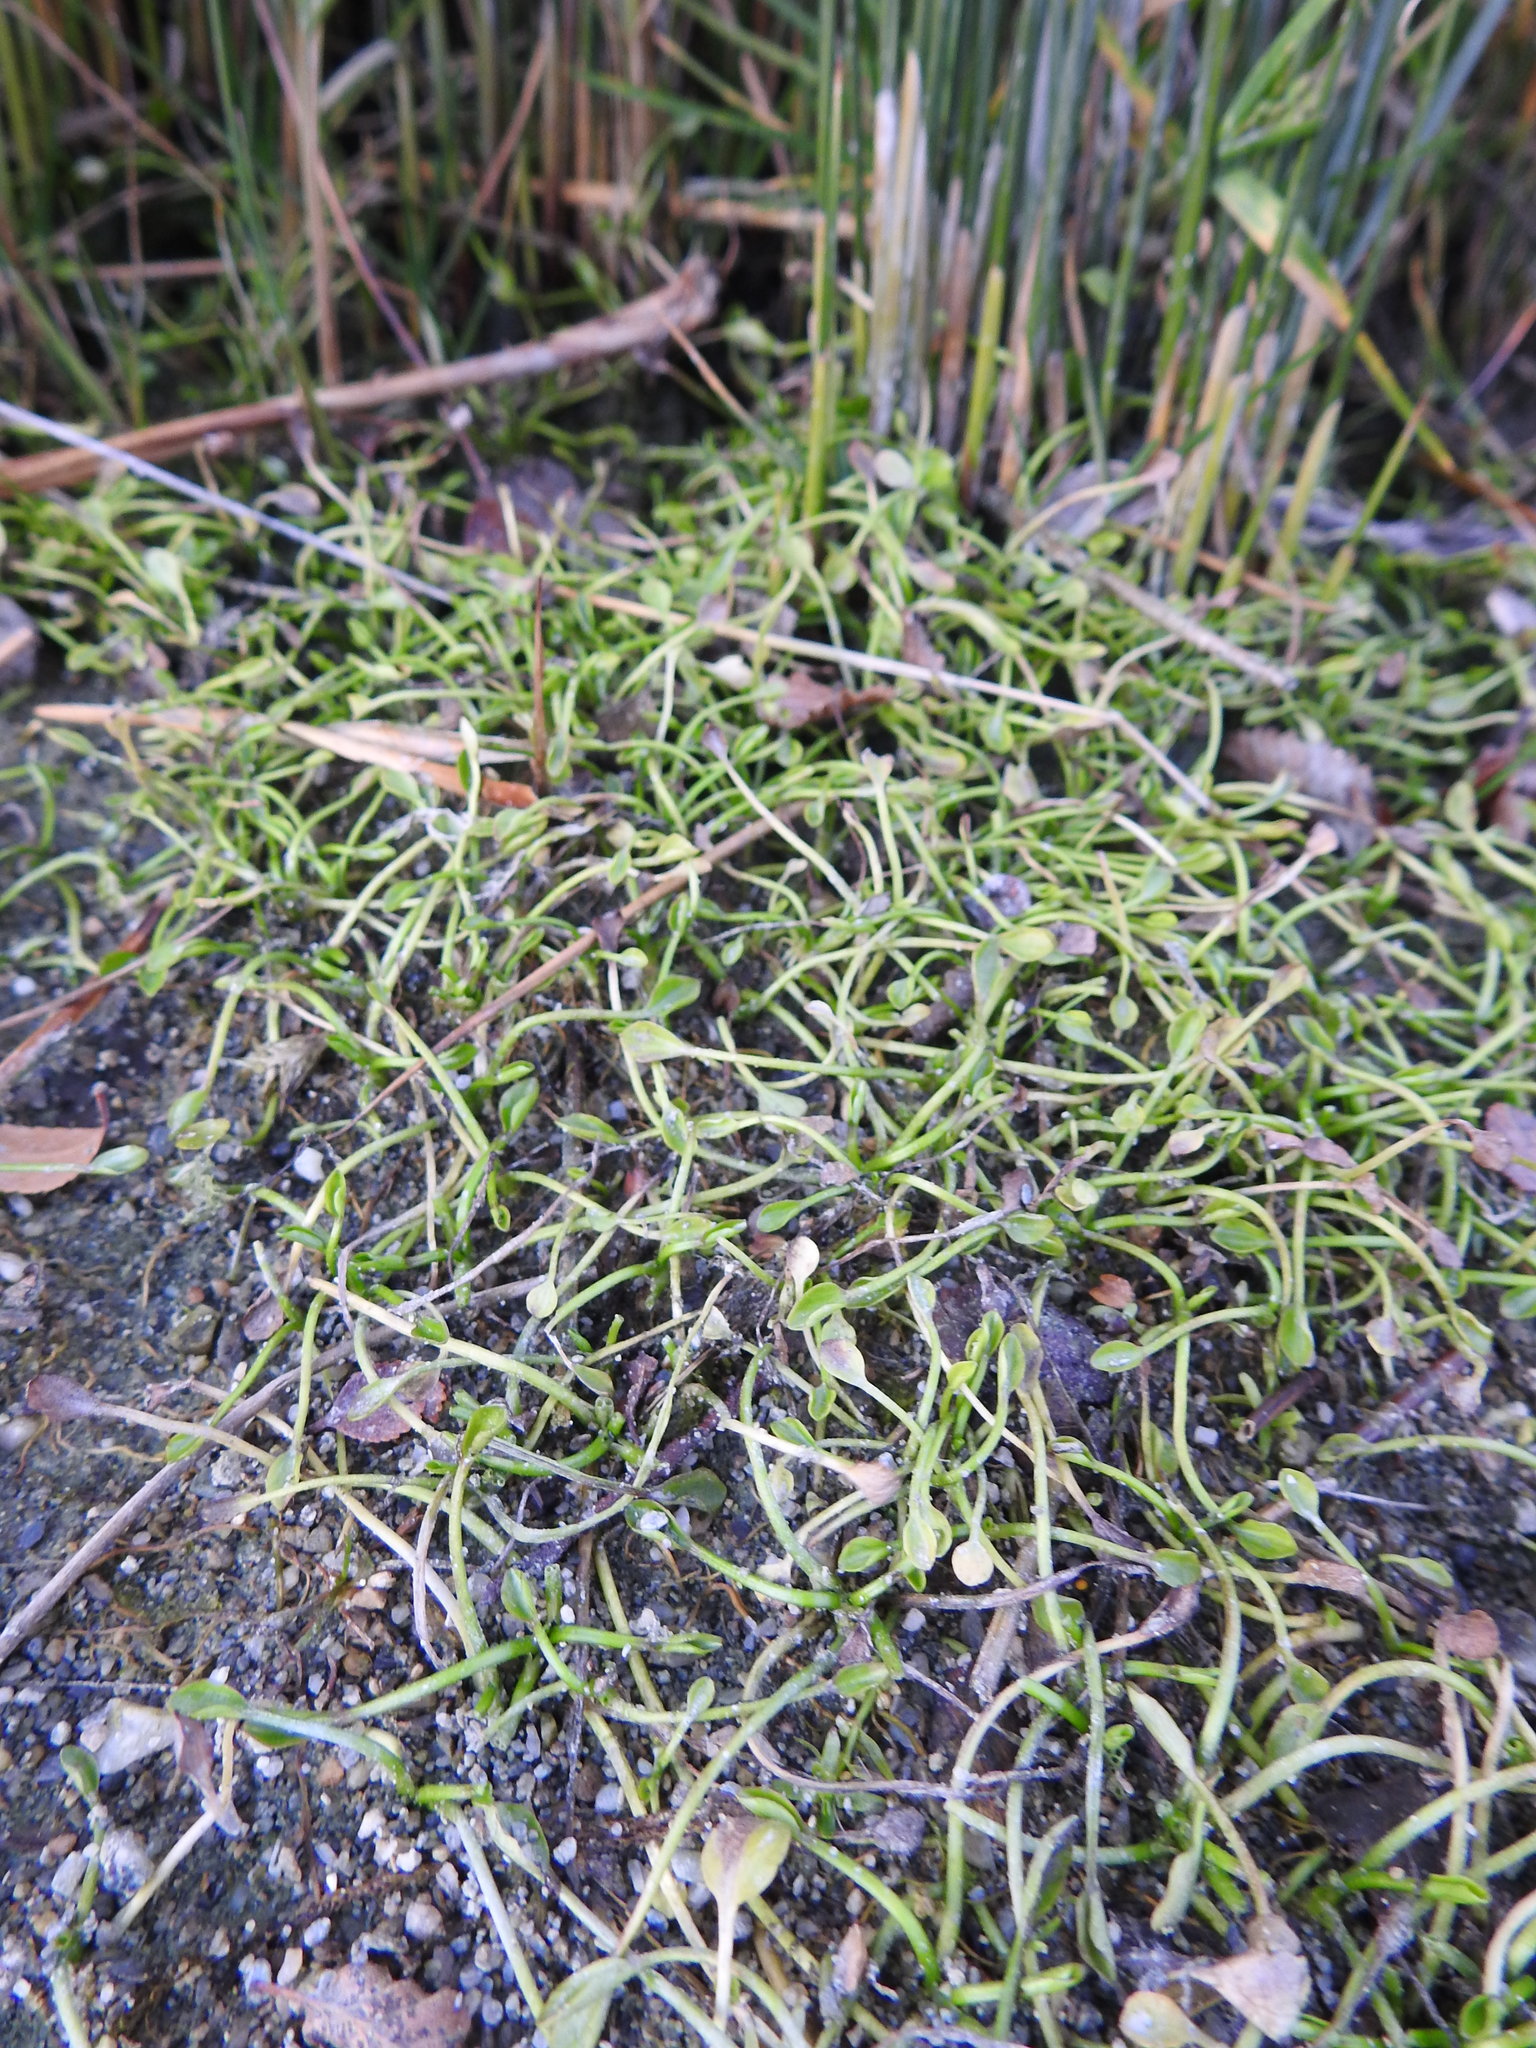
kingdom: Plantae
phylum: Tracheophyta
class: Magnoliopsida
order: Ranunculales
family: Ranunculaceae
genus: Ranunculus
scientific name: Ranunculus hydrophilus
